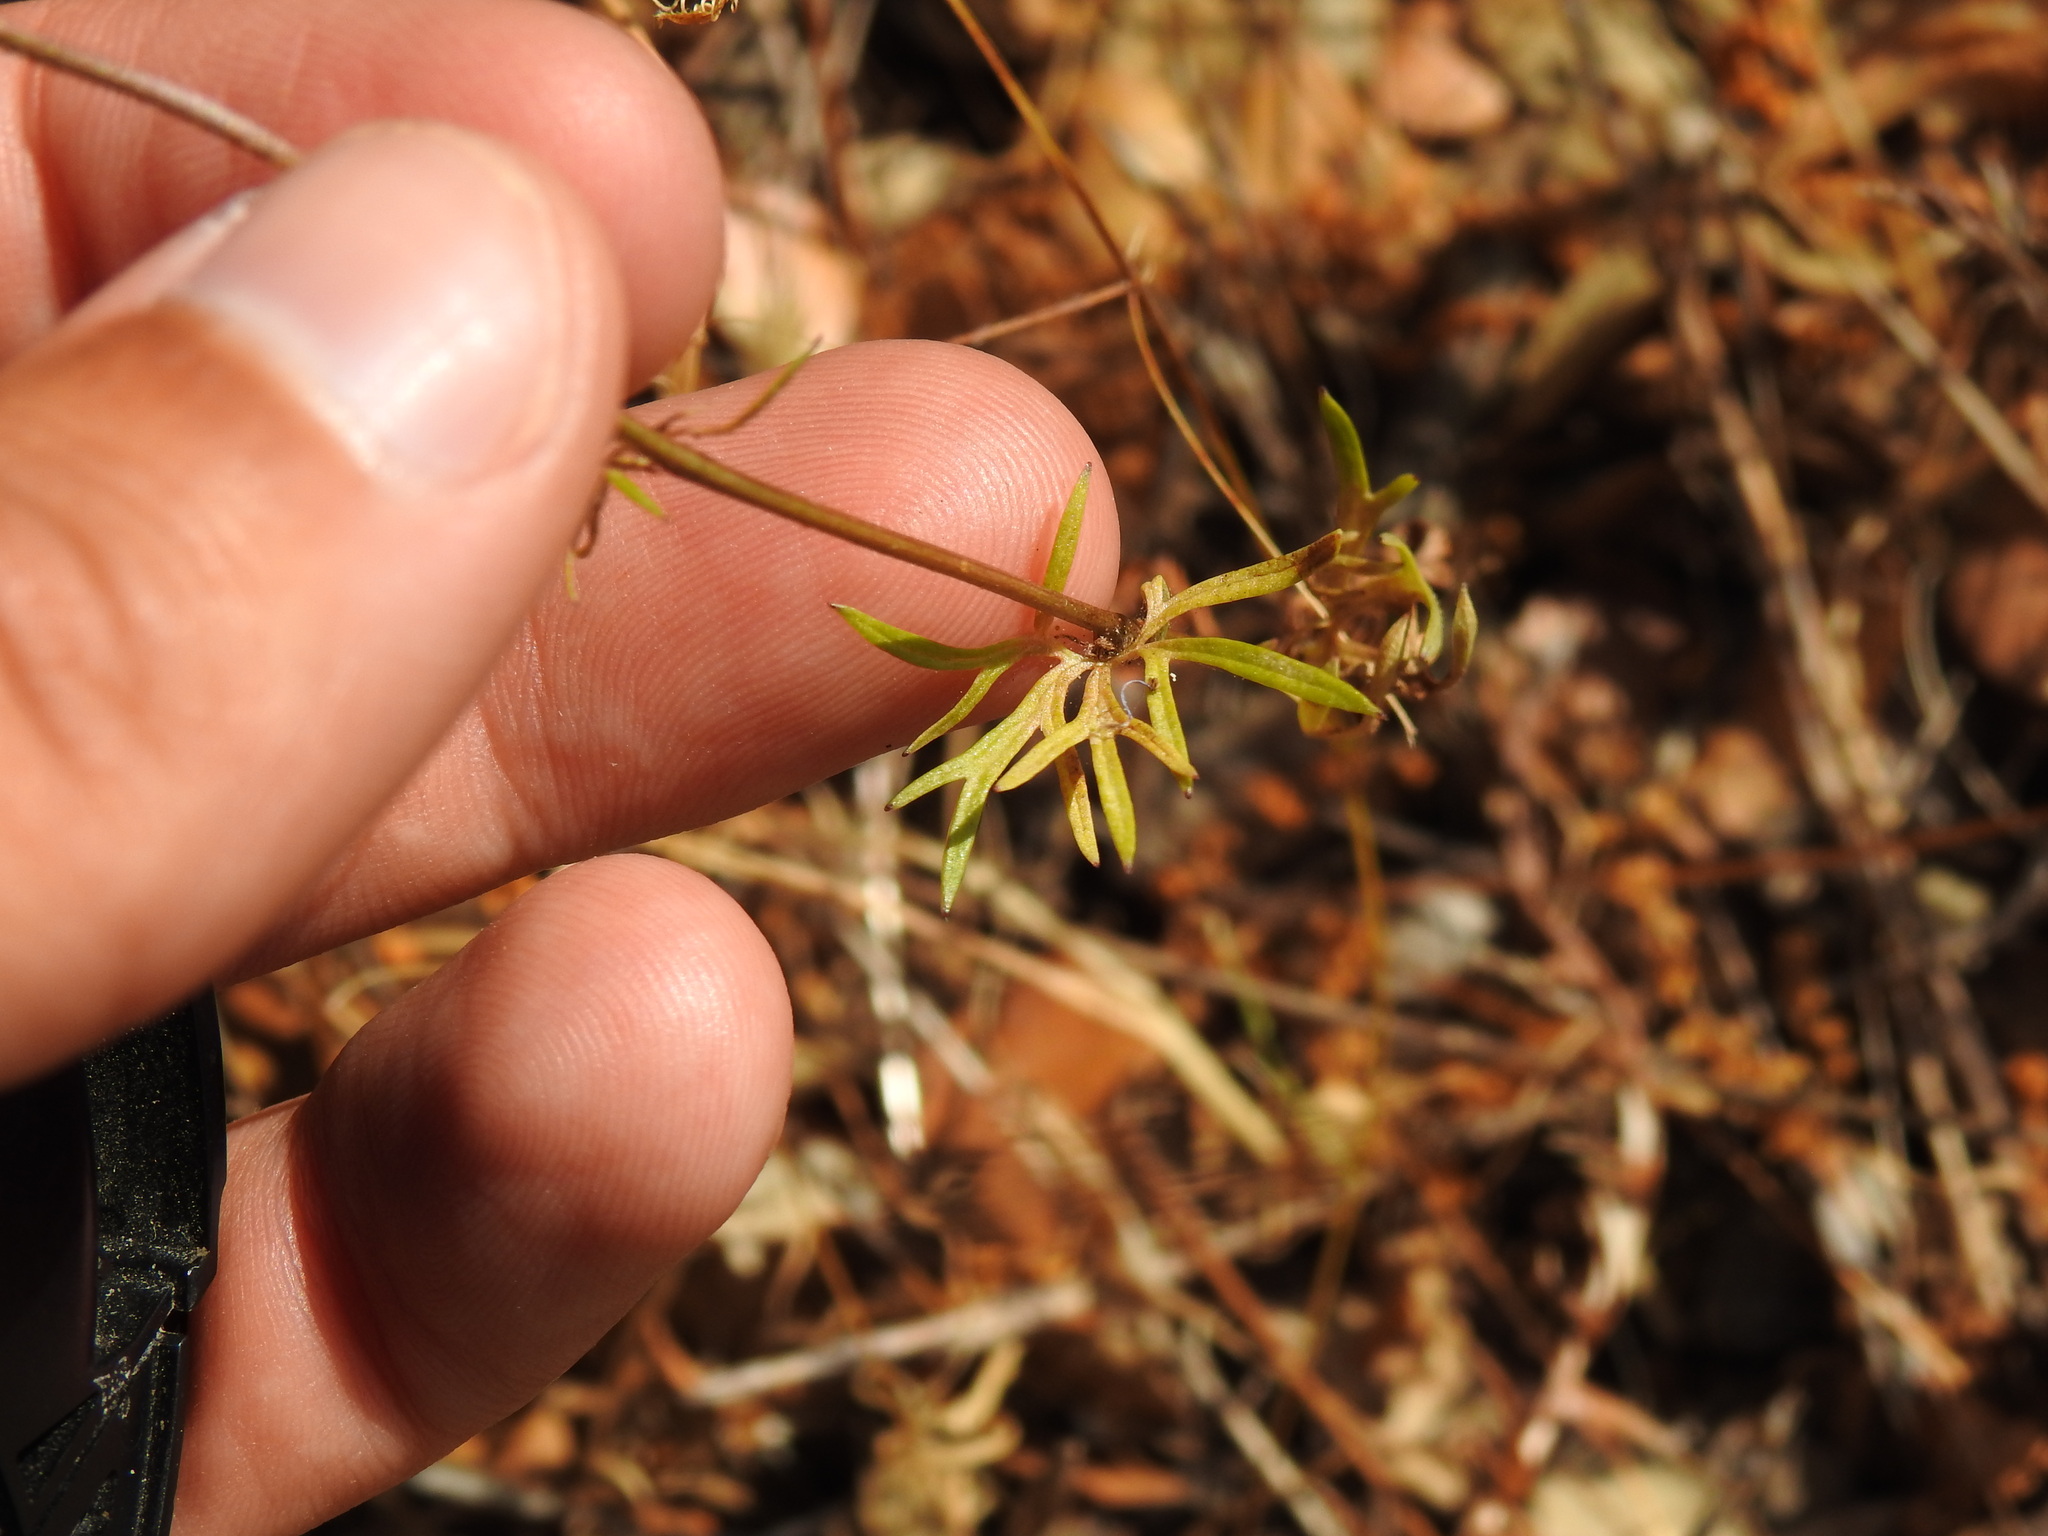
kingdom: Plantae
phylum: Tracheophyta
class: Magnoliopsida
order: Ranunculales
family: Ranunculaceae
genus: Delphinium
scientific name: Delphinium pentagynum
